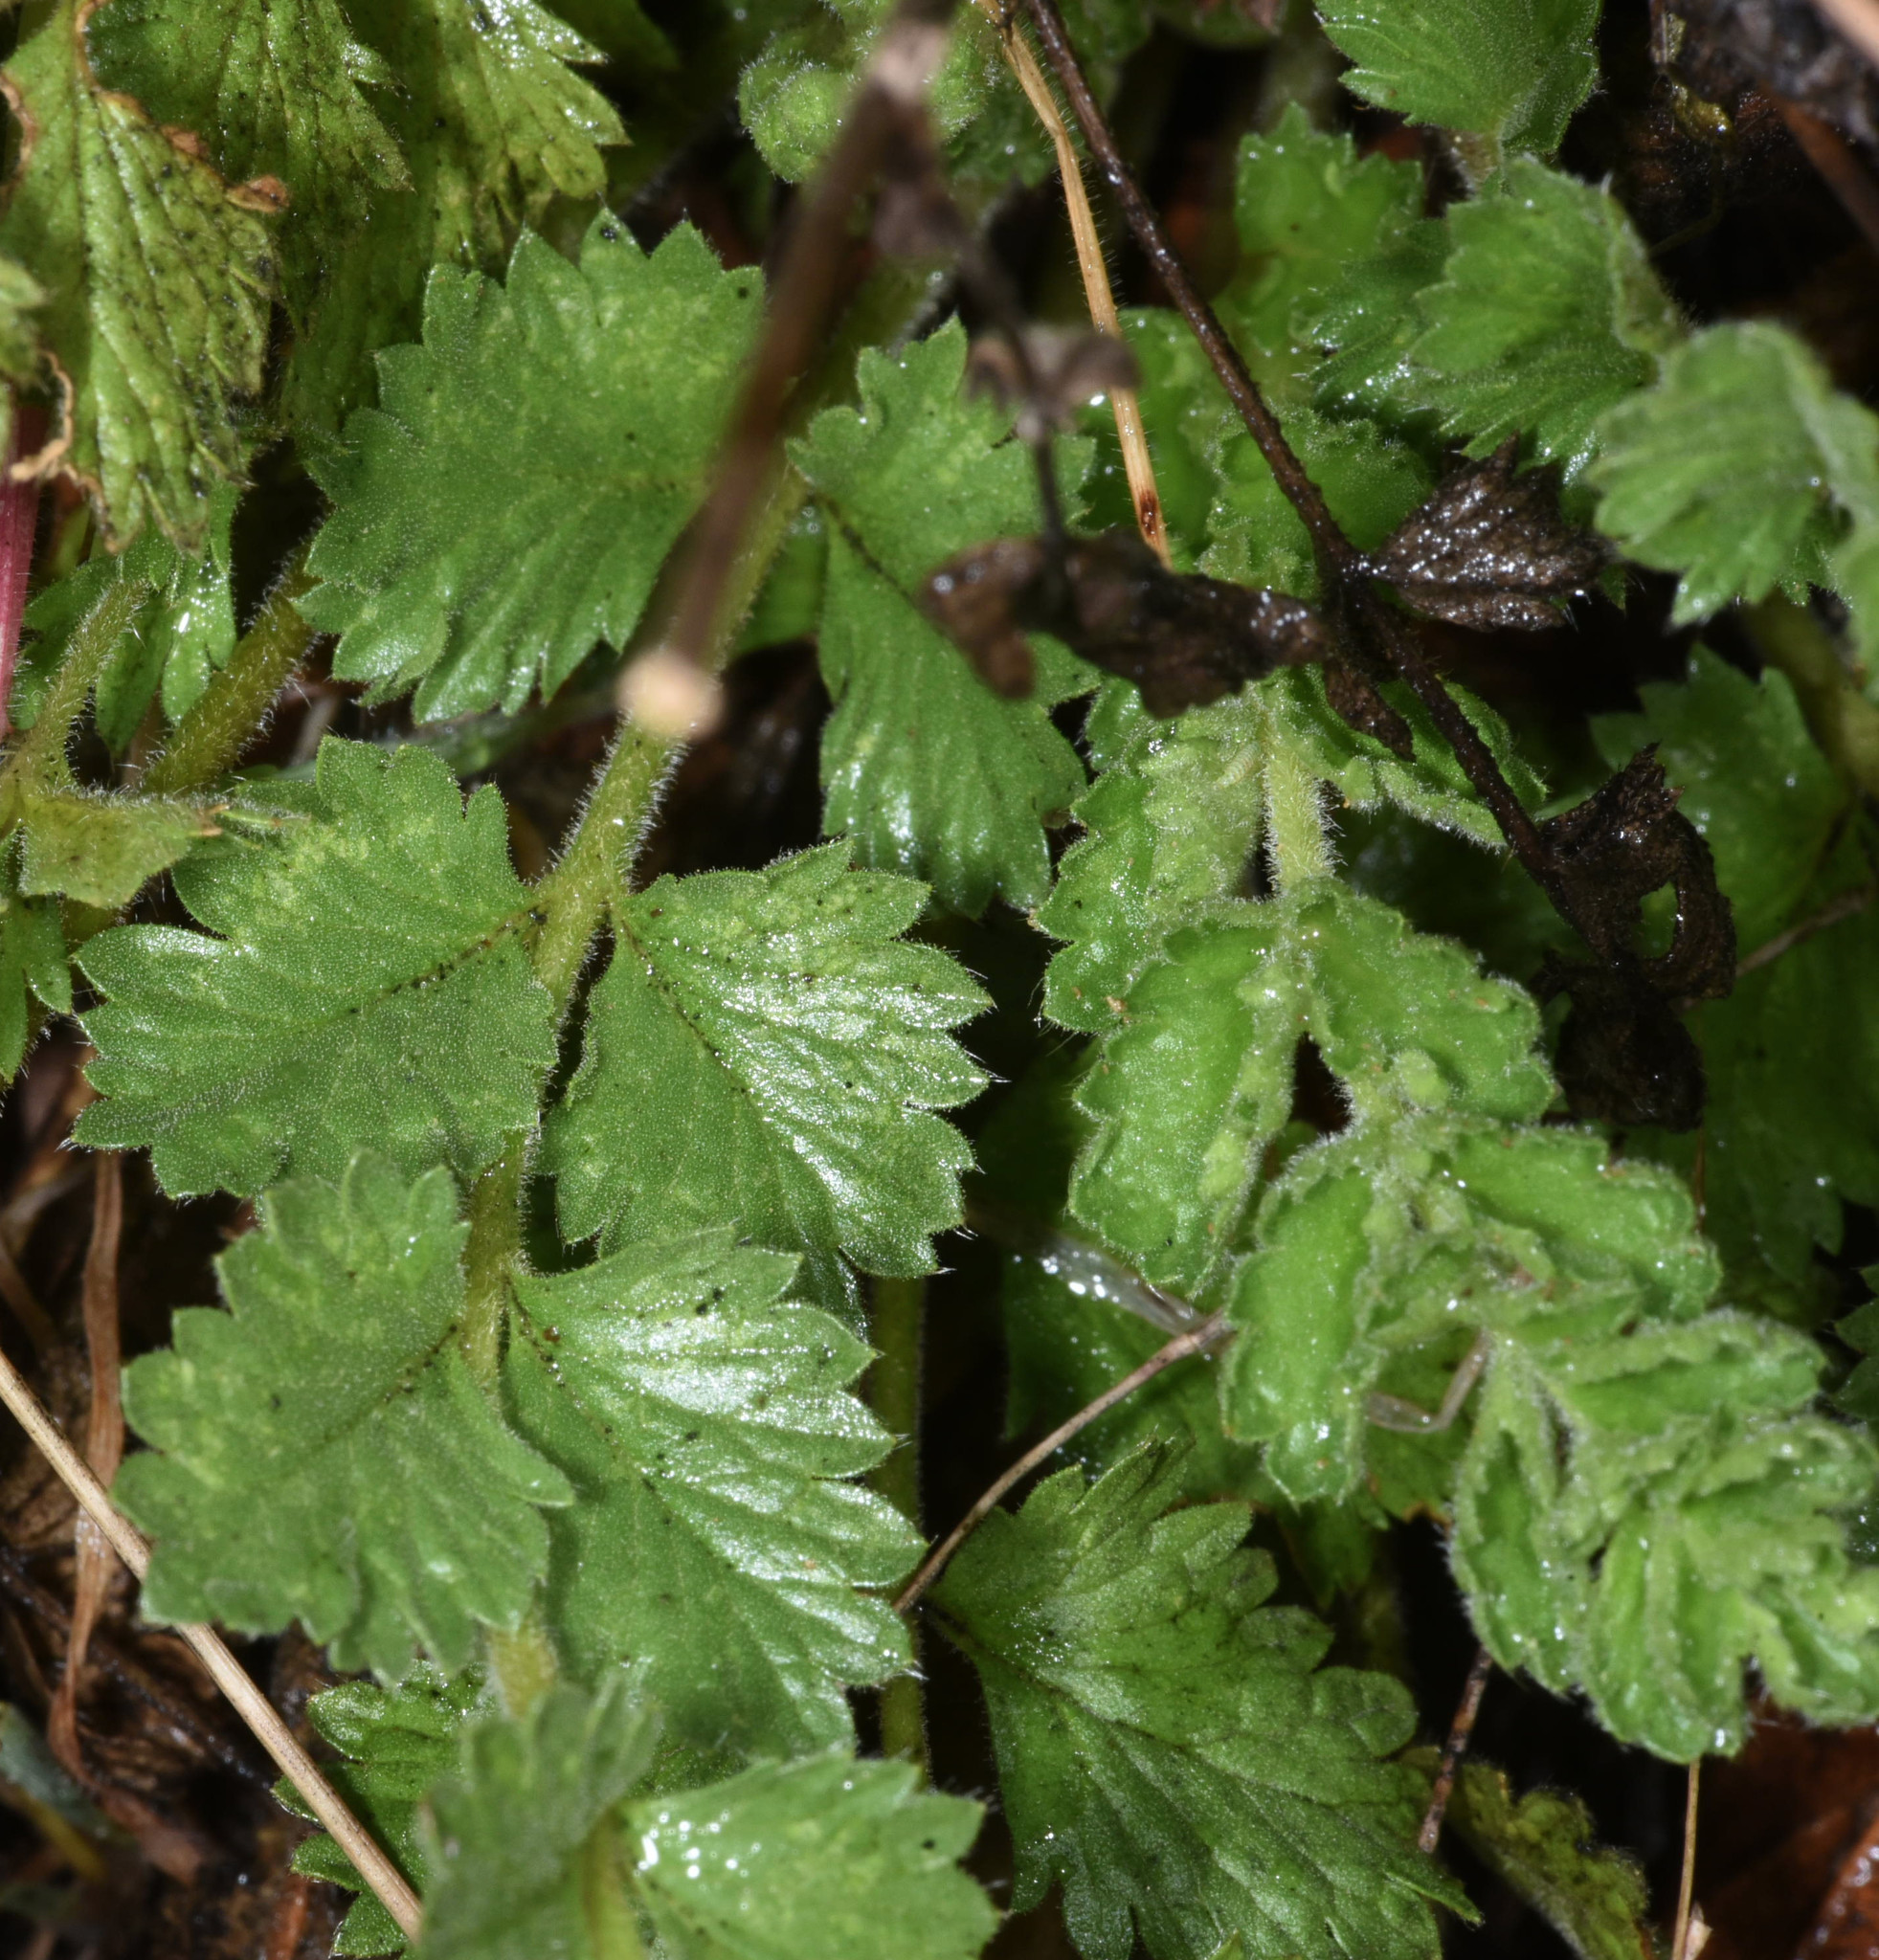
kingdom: Plantae
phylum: Tracheophyta
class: Magnoliopsida
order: Rosales
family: Rosaceae
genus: Potentilla
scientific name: Potentilla lindleyi
